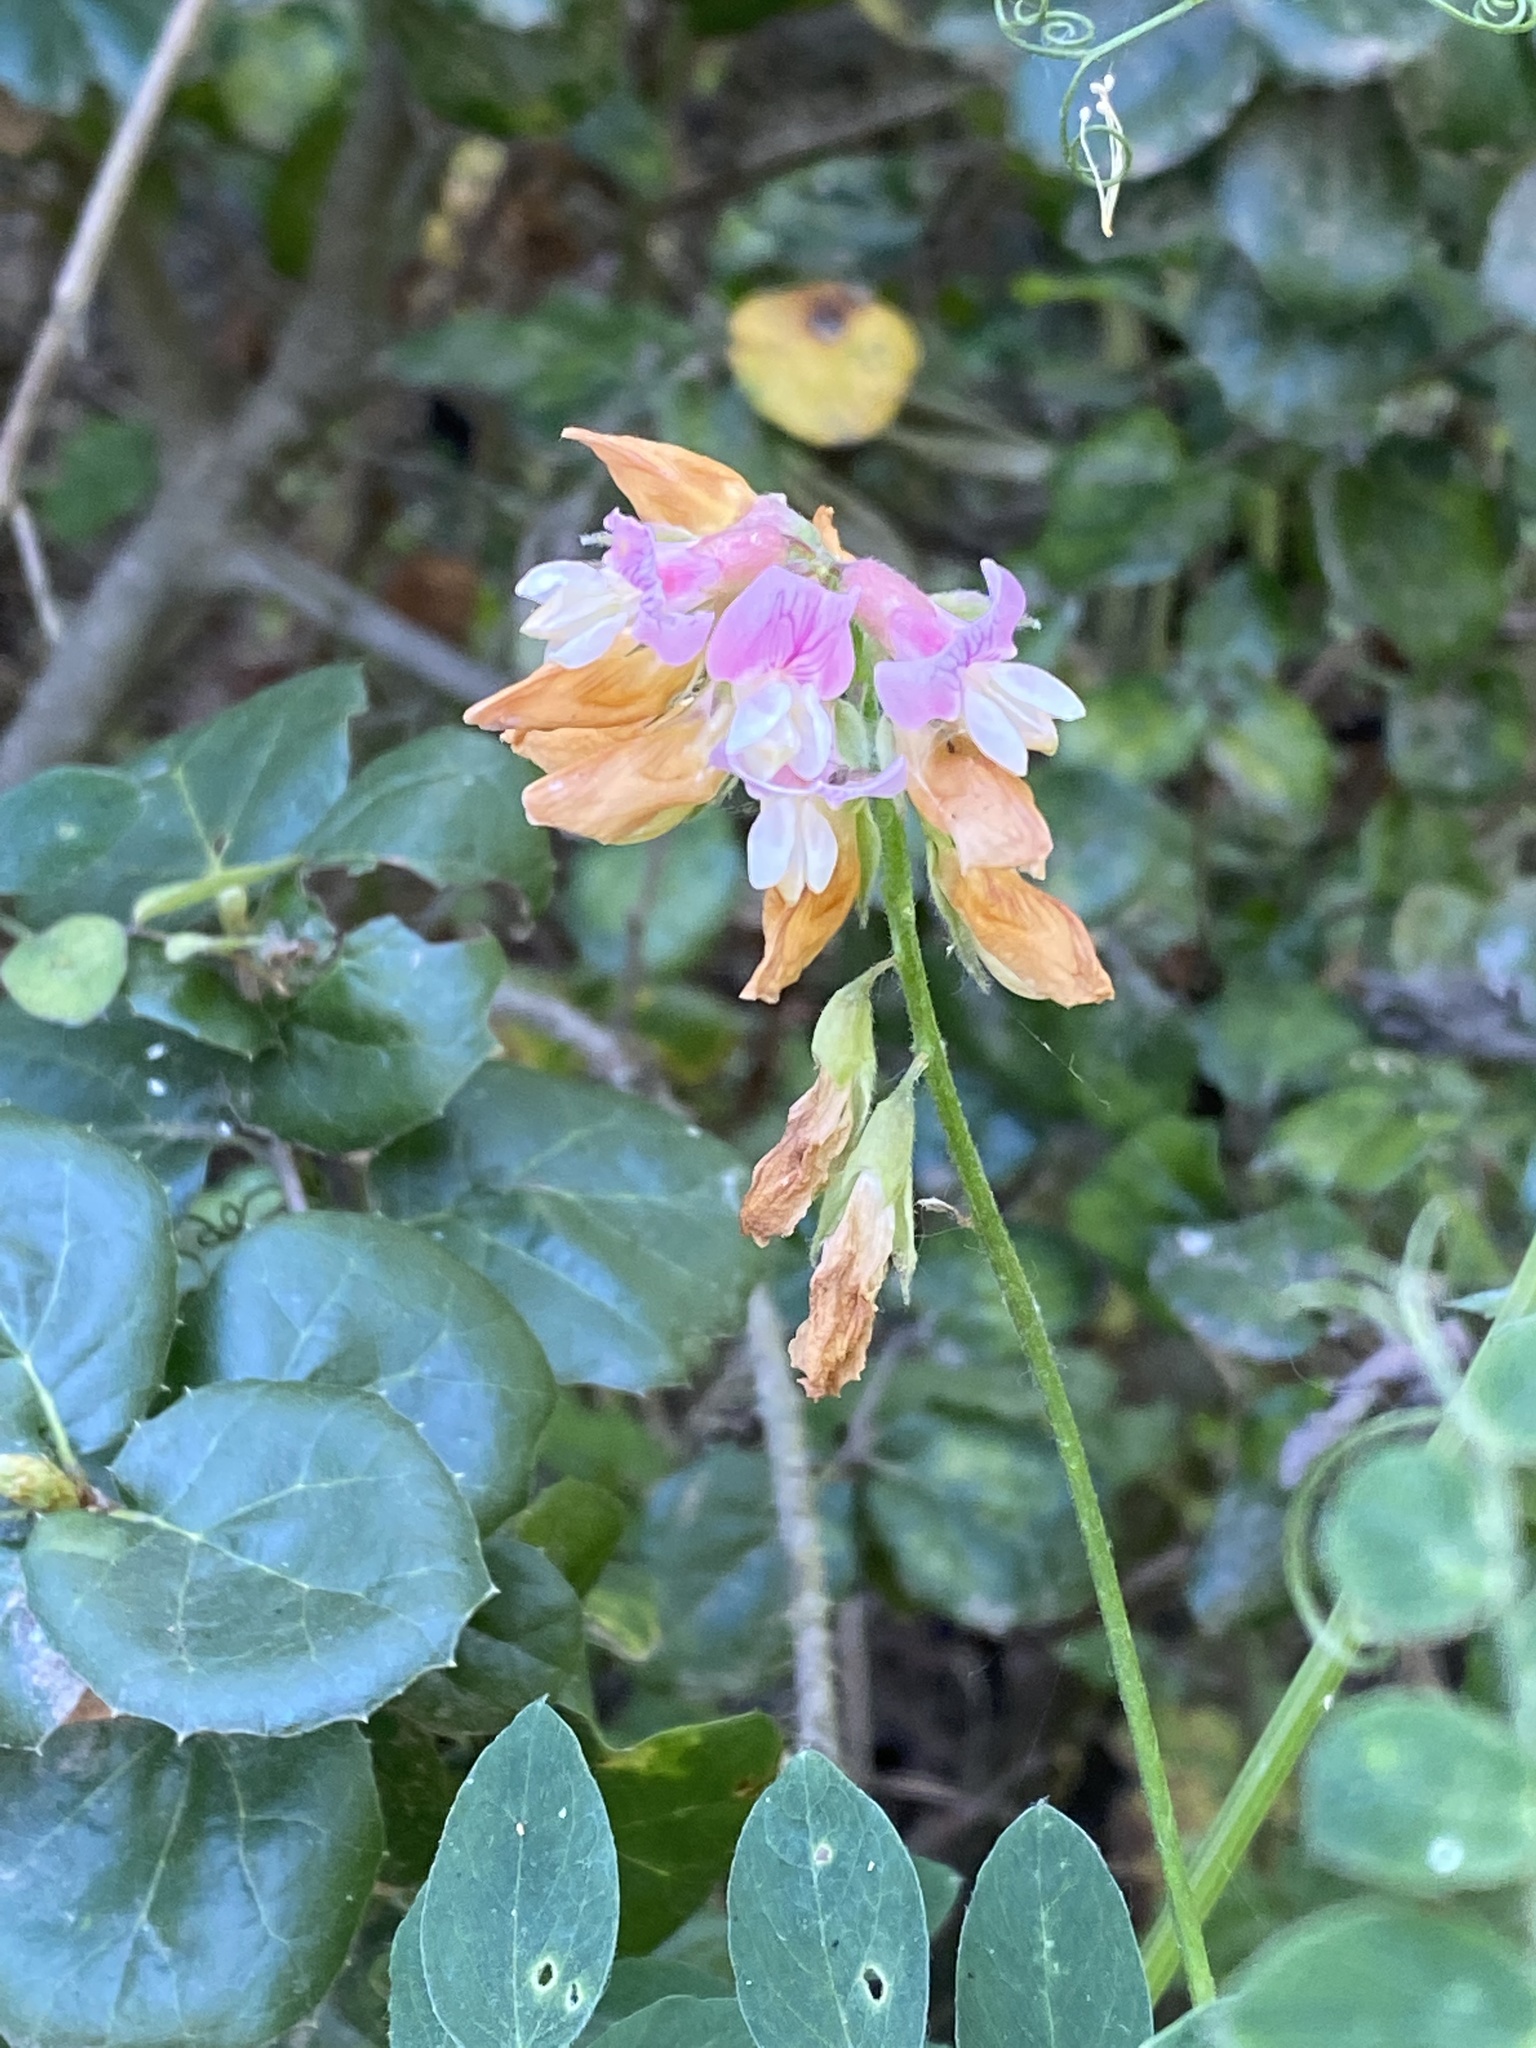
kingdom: Plantae
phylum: Tracheophyta
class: Magnoliopsida
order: Fabales
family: Fabaceae
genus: Lathyrus
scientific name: Lathyrus vestitus
